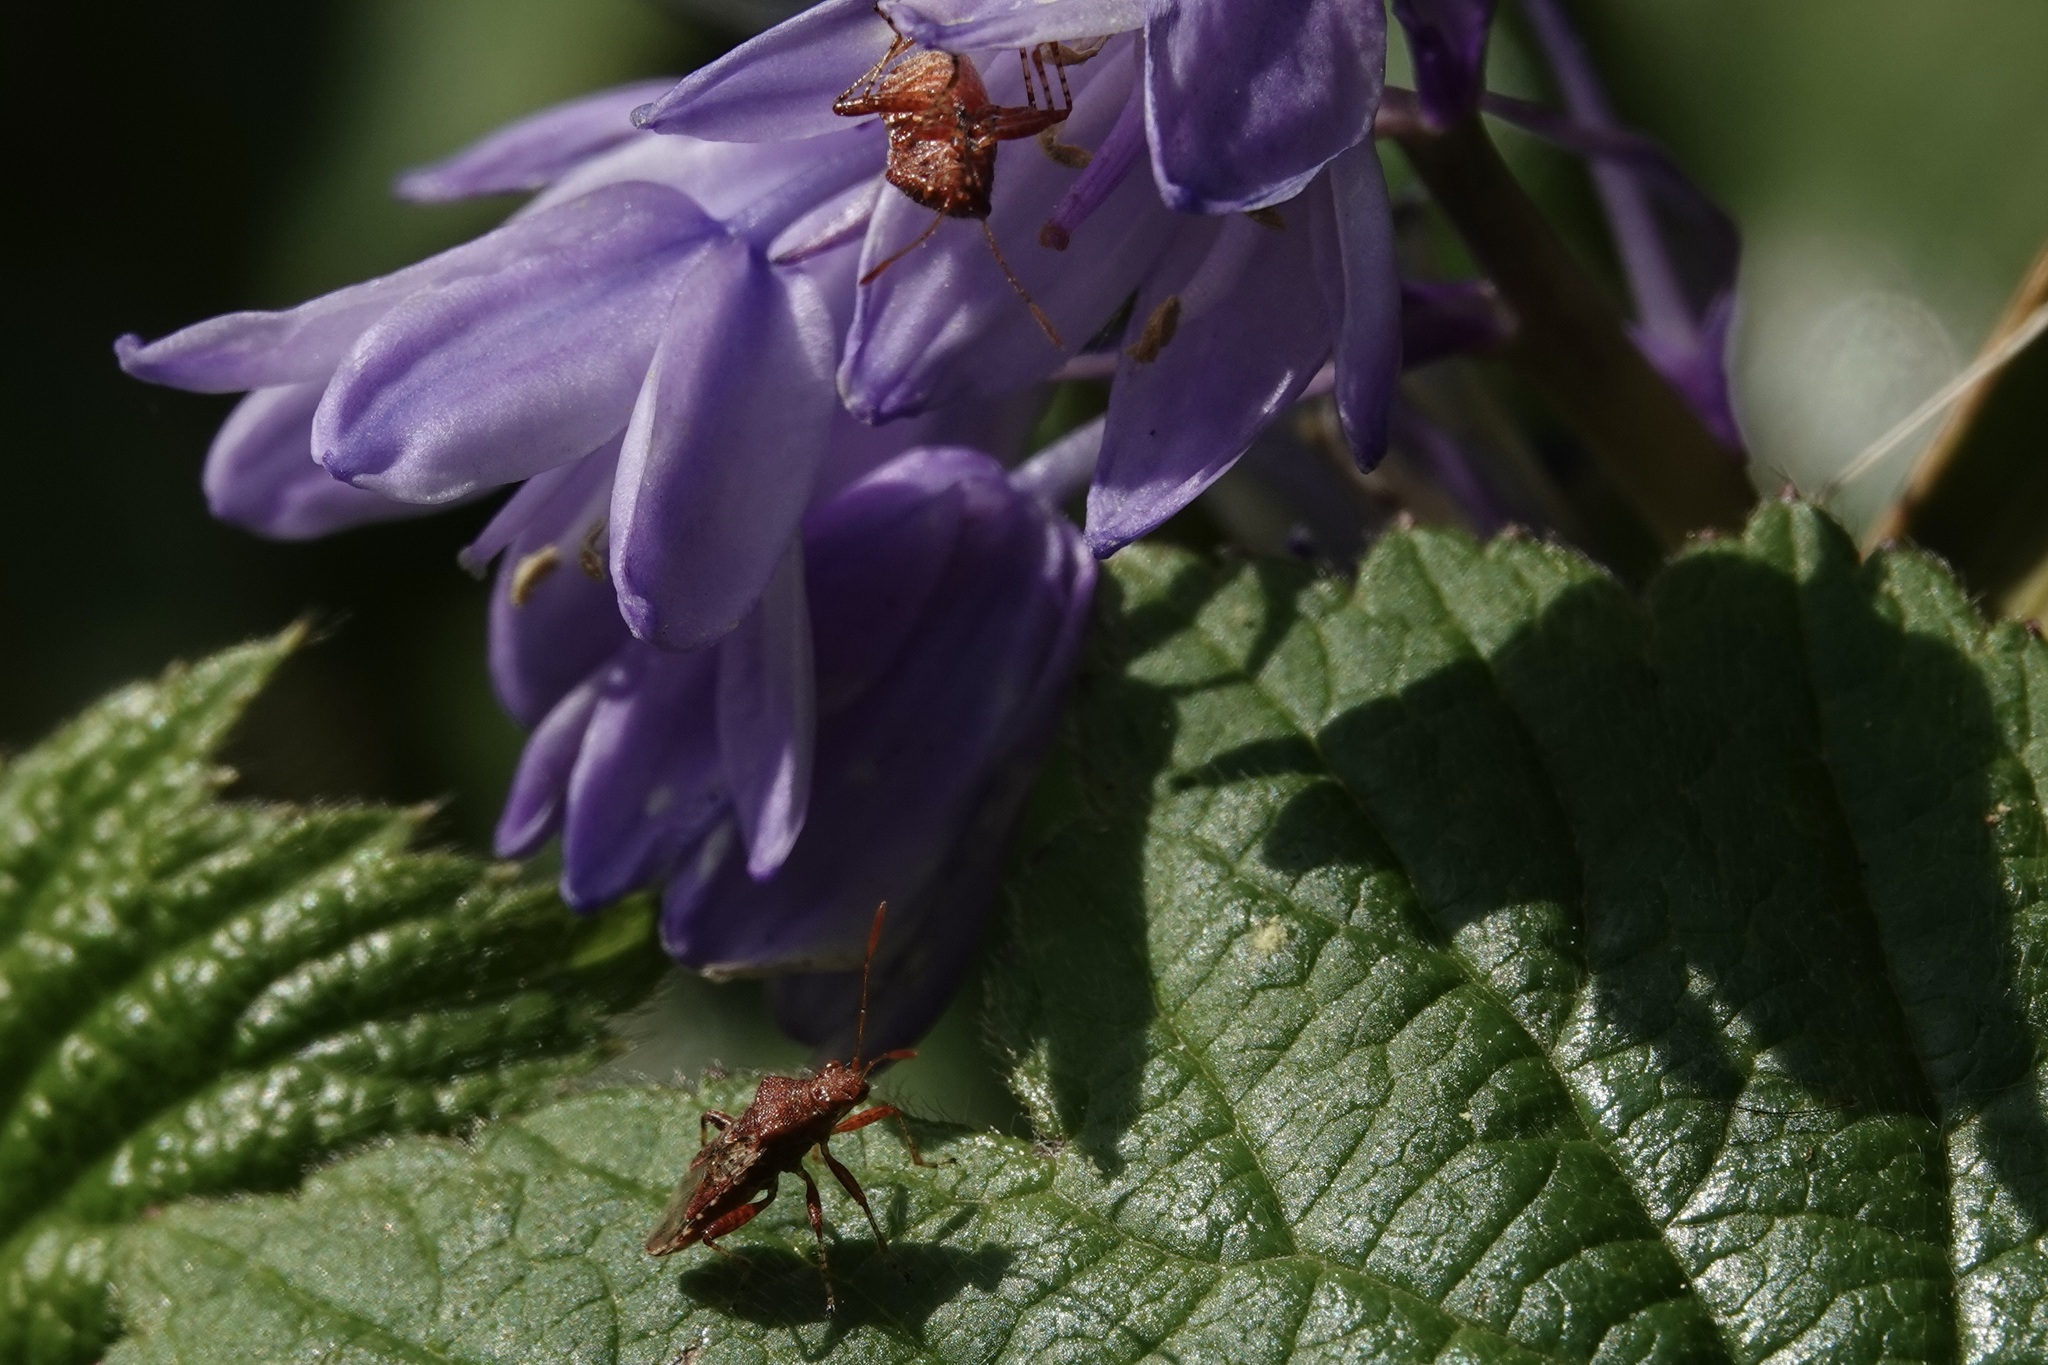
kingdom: Animalia
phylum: Arthropoda
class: Insecta
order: Hemiptera
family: Rhopalidae
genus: Rhopalus
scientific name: Rhopalus subrufus
